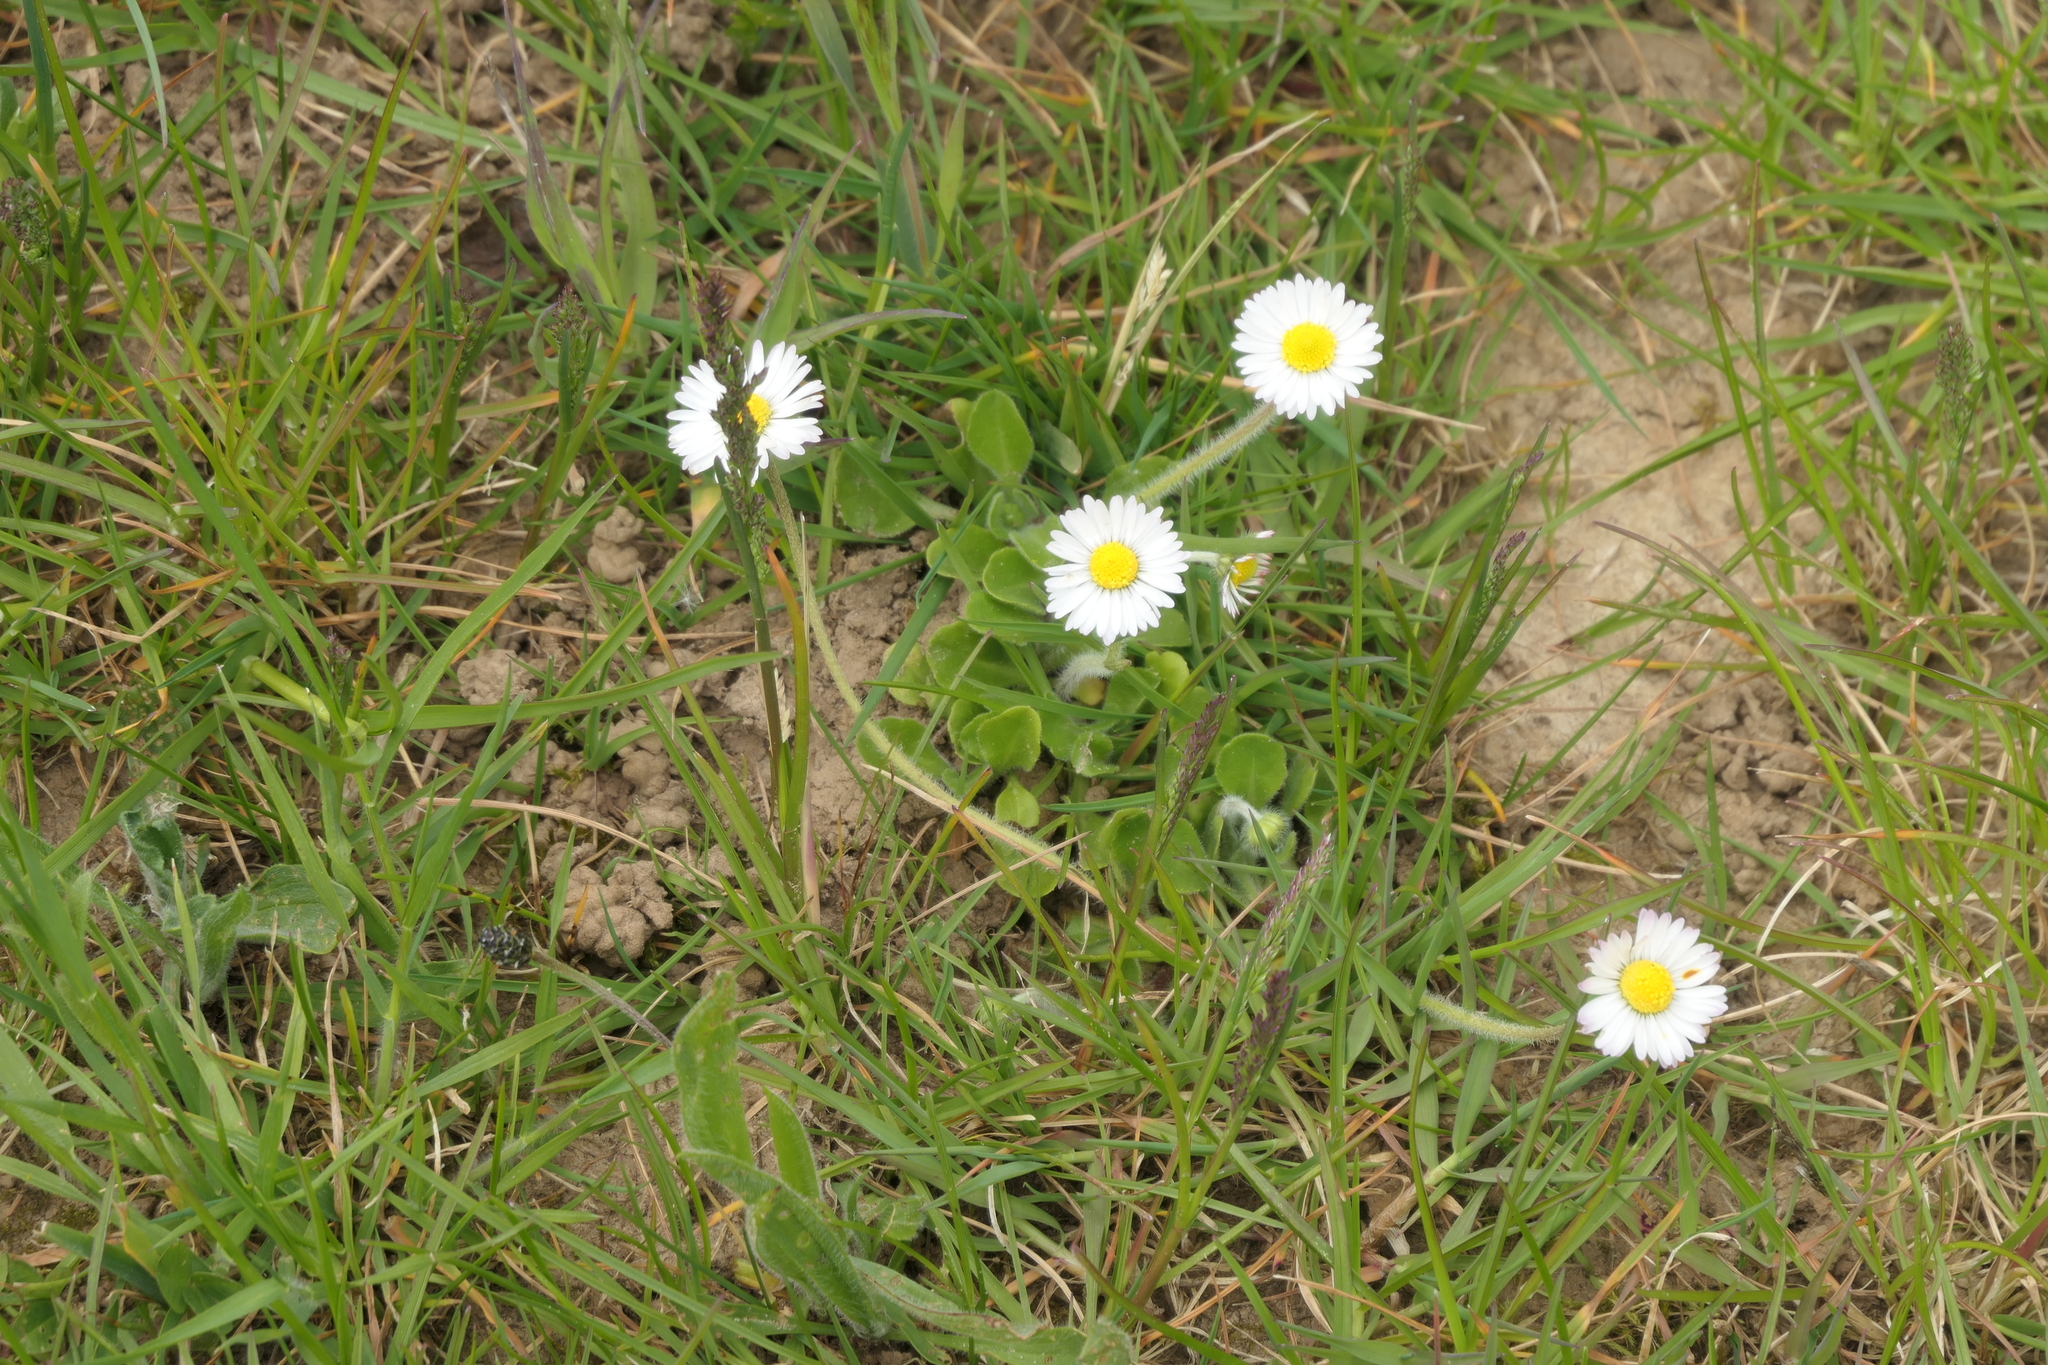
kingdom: Plantae
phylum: Tracheophyta
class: Magnoliopsida
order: Asterales
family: Asteraceae
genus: Bellis
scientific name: Bellis perennis
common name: Lawndaisy
